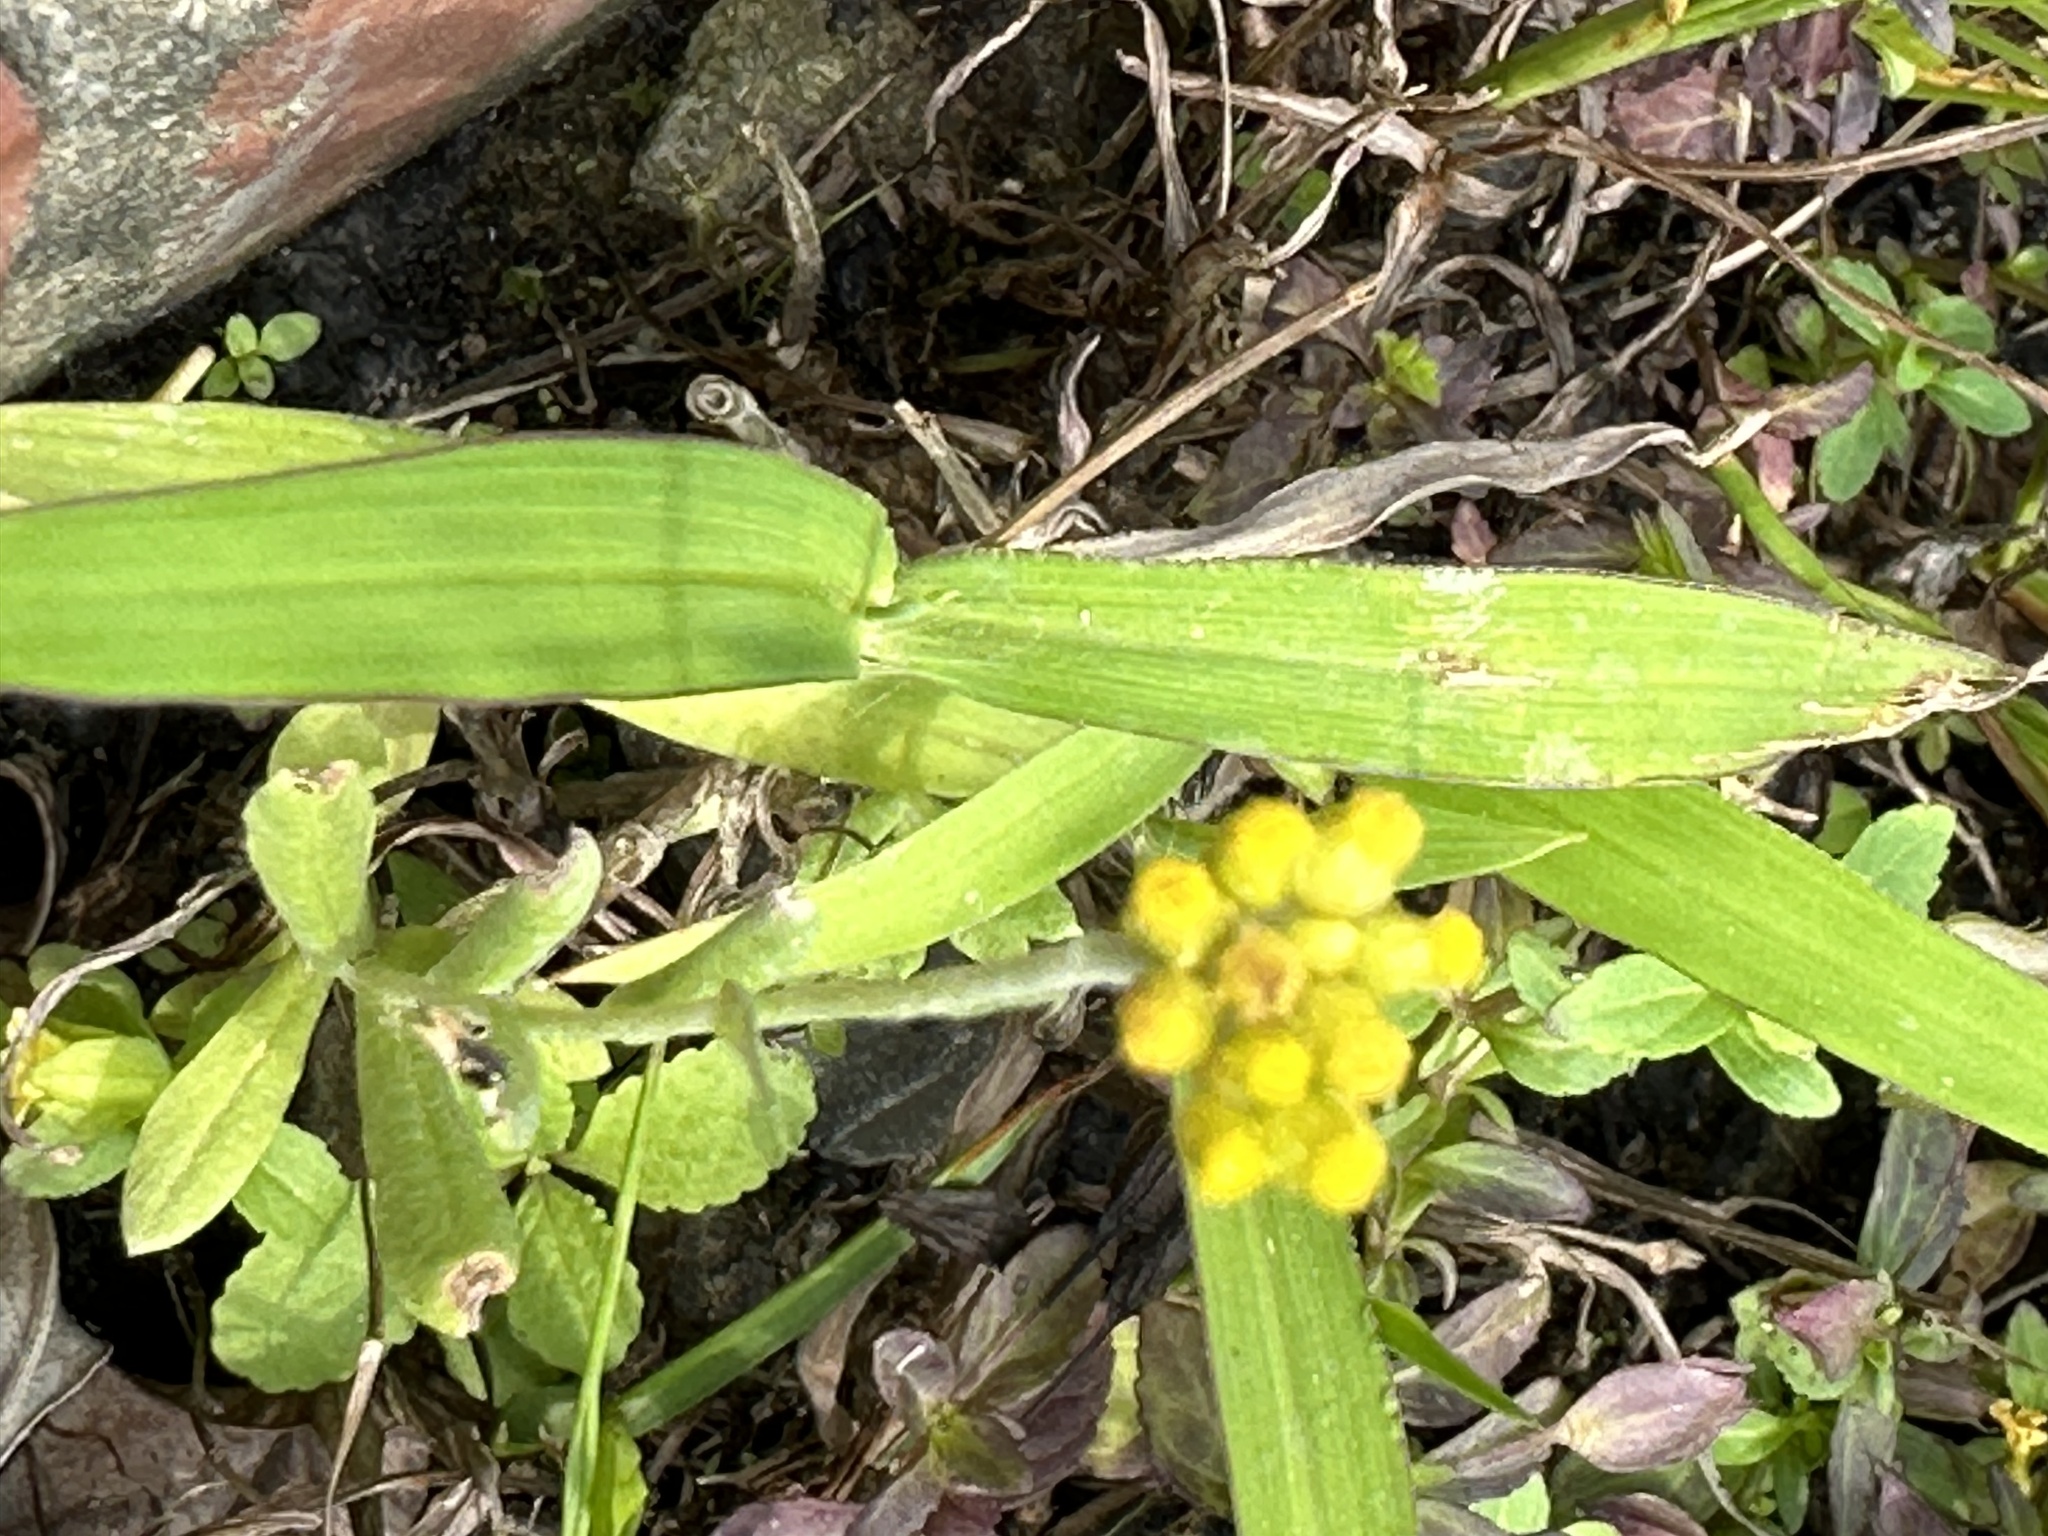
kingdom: Plantae
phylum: Tracheophyta
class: Magnoliopsida
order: Asterales
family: Asteraceae
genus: Pseudognaphalium
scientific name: Pseudognaphalium affine
